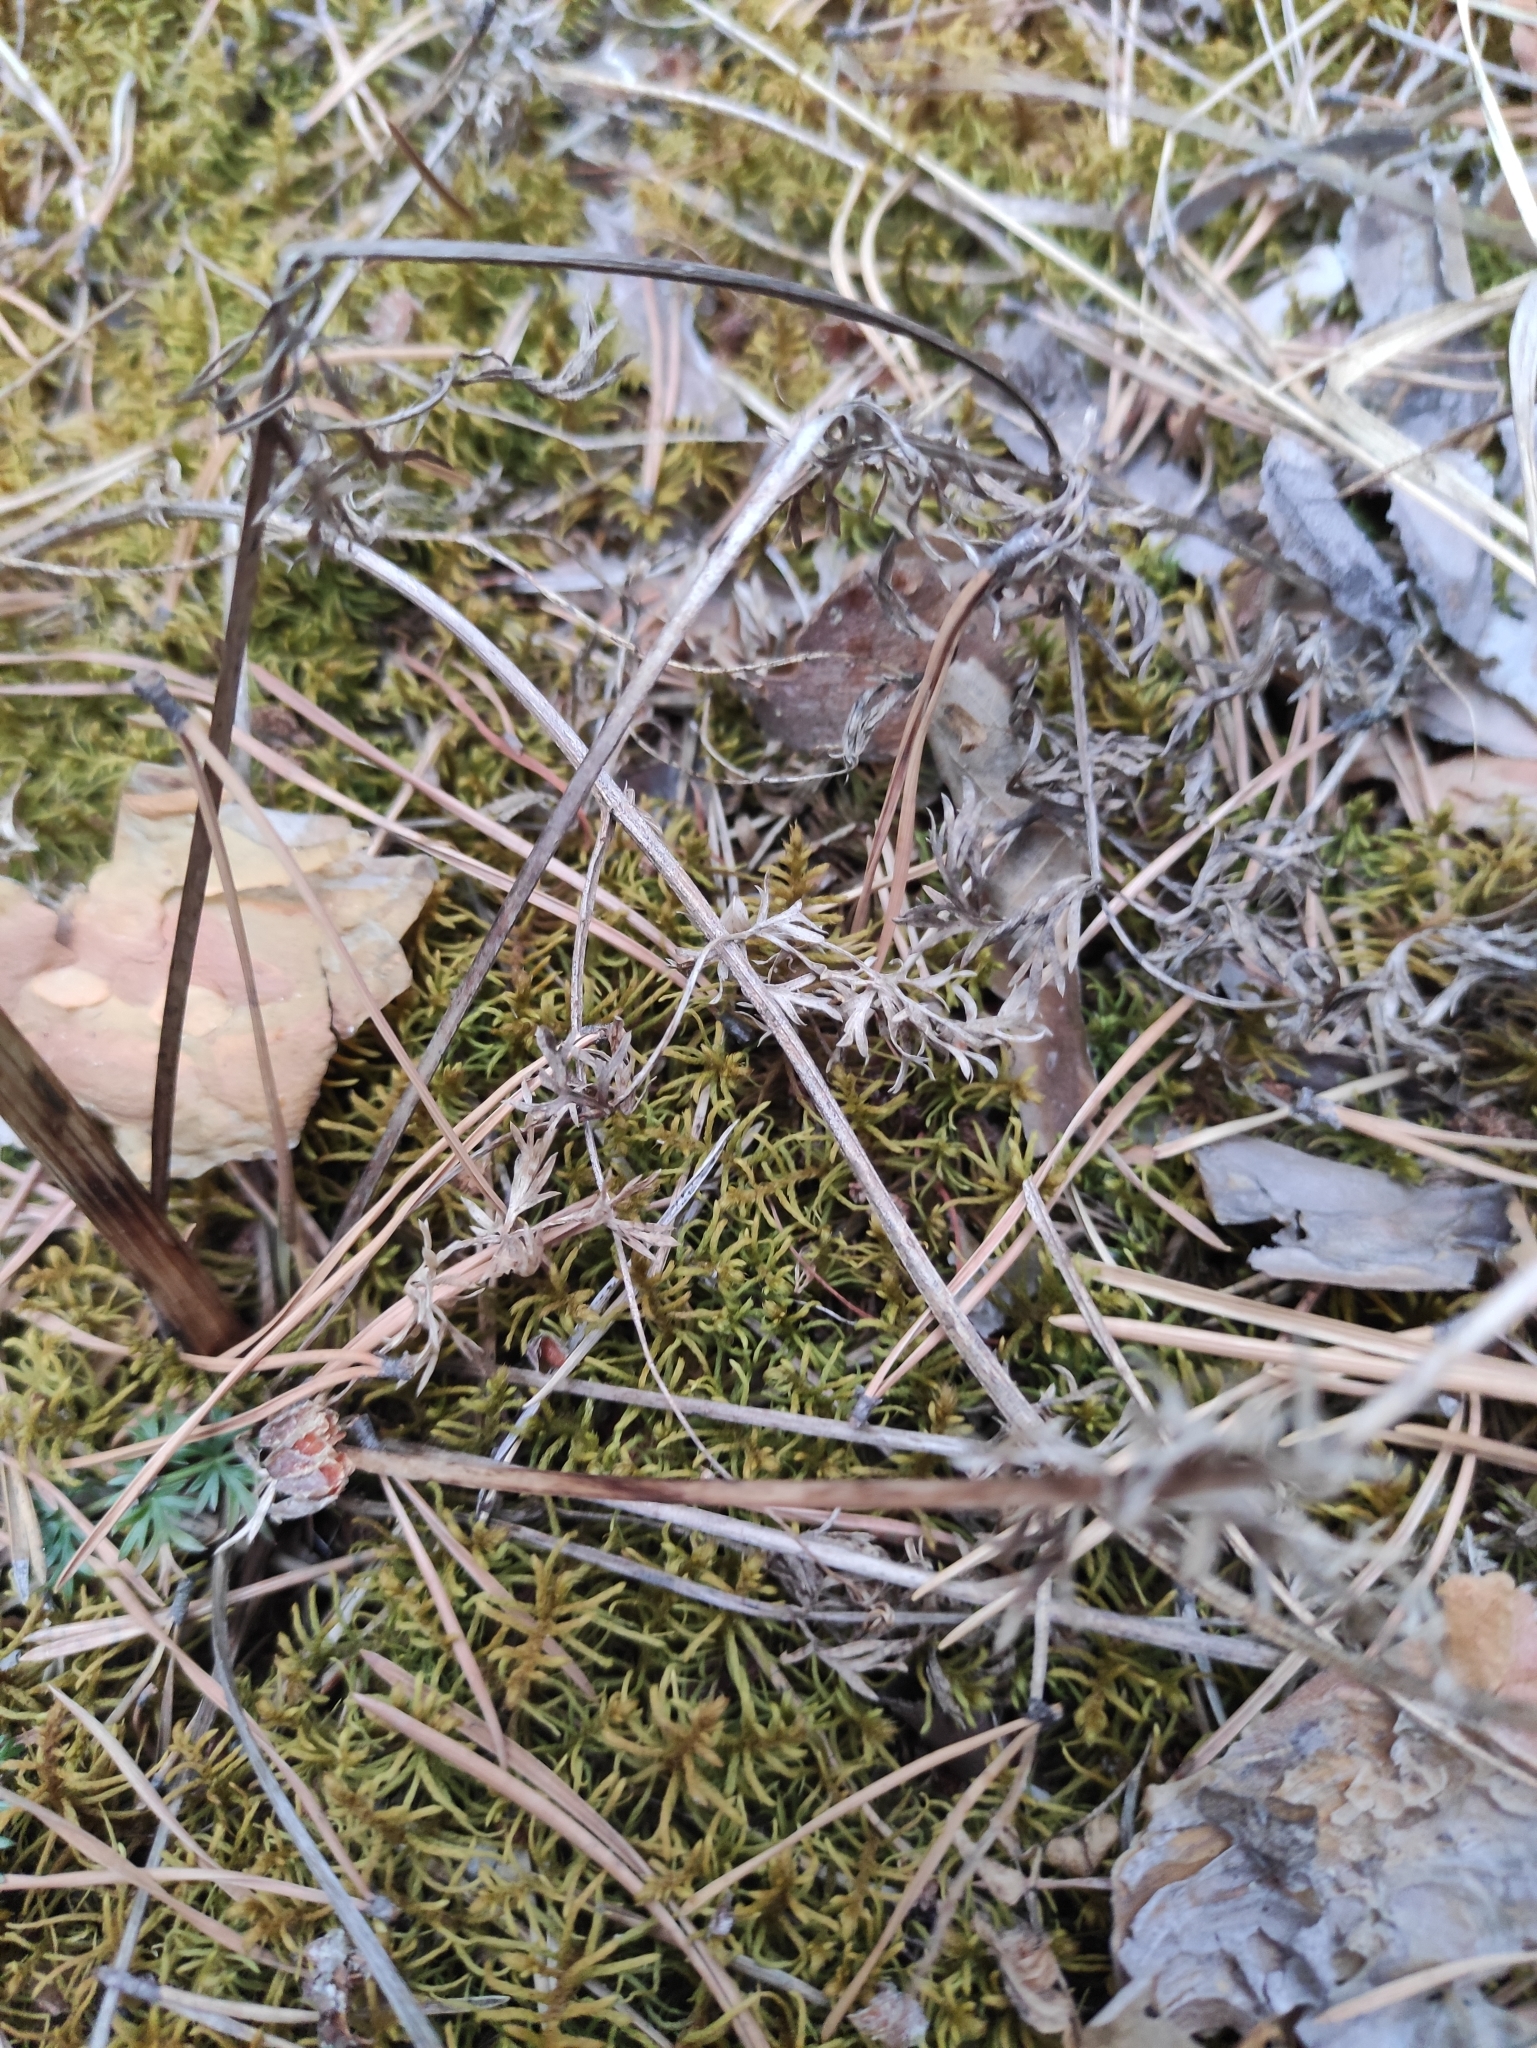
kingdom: Plantae
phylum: Tracheophyta
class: Magnoliopsida
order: Apiales
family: Apiaceae
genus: Kitagawia
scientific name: Kitagawia baicalensis
